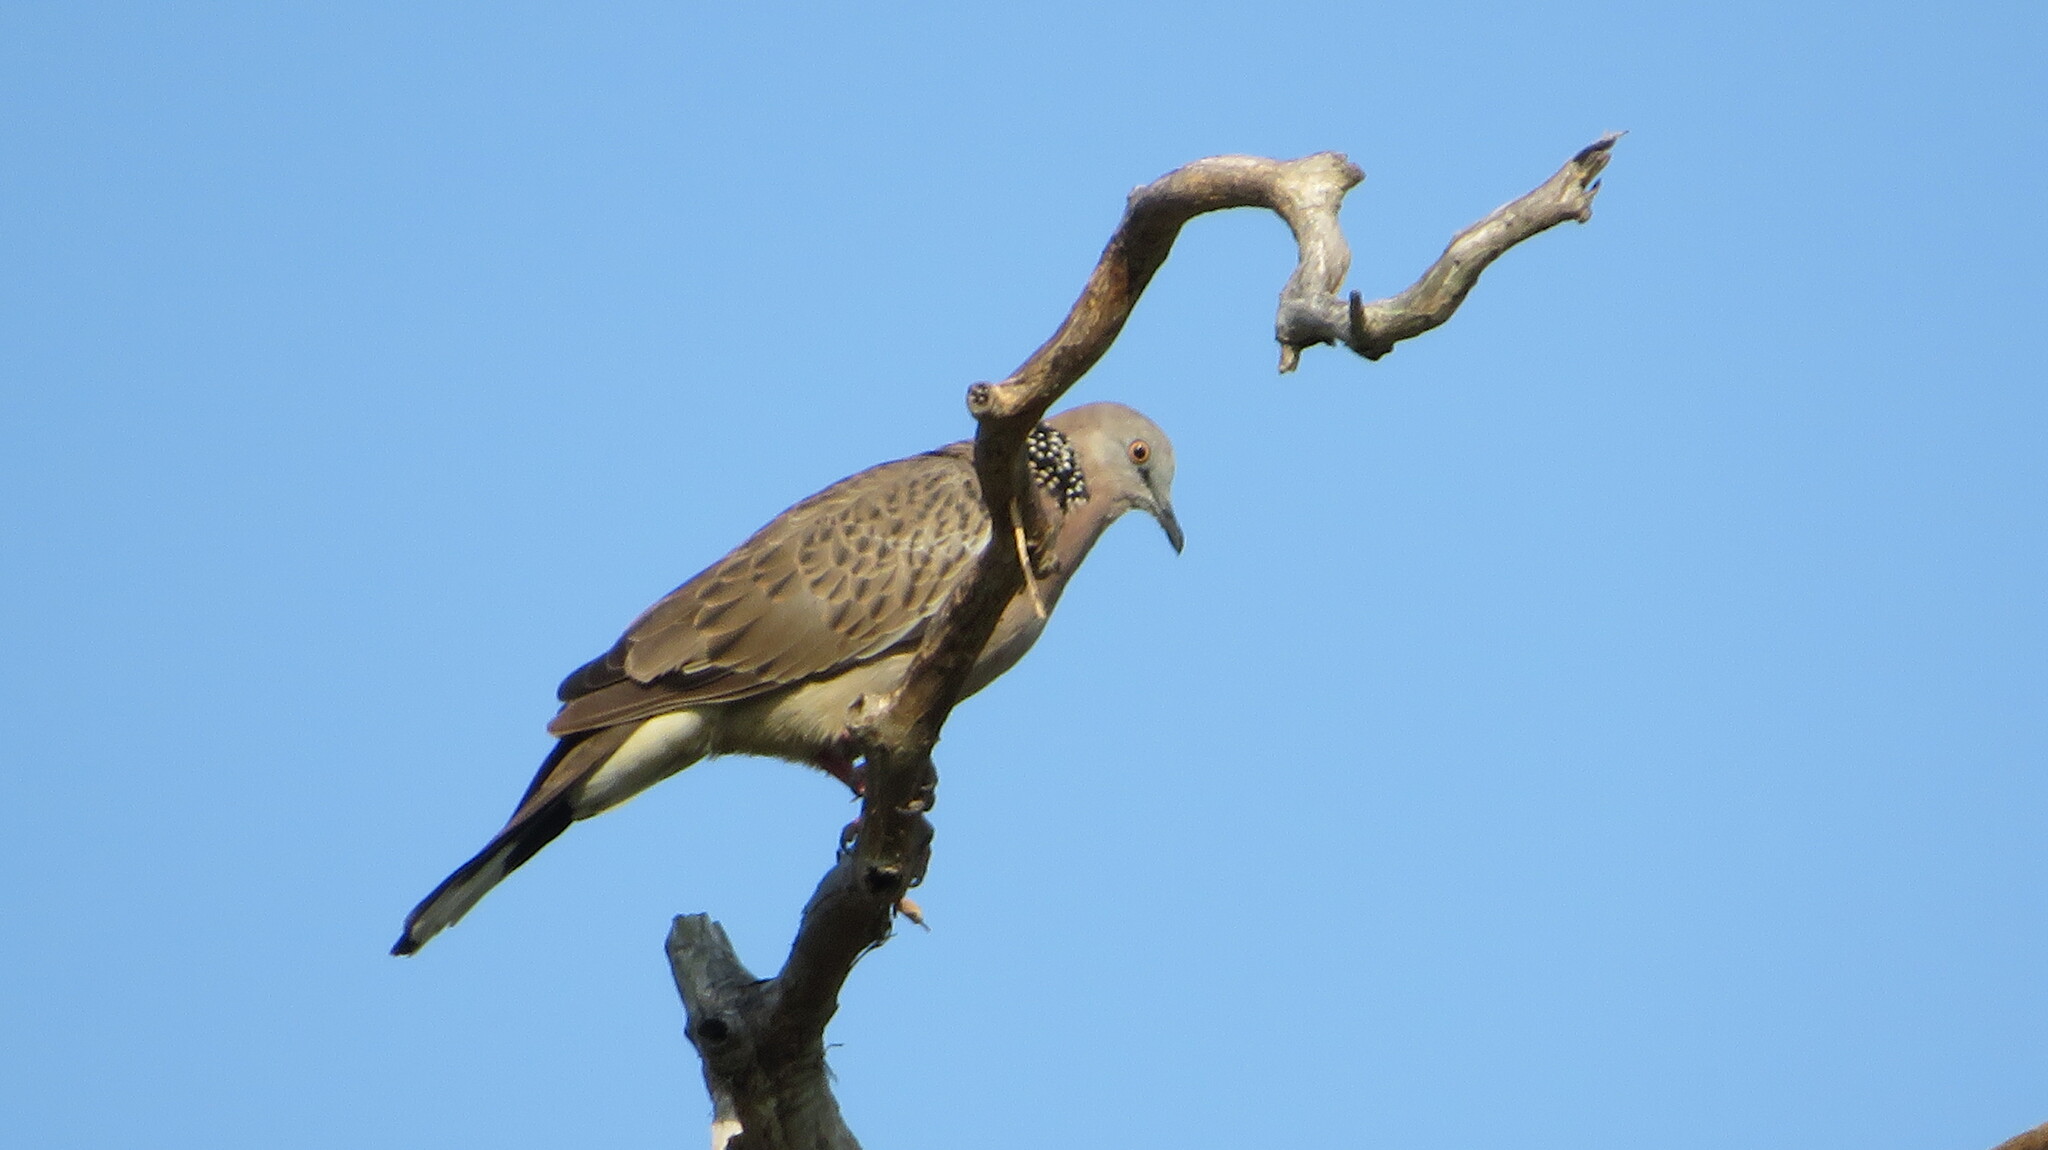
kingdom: Animalia
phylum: Chordata
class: Aves
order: Columbiformes
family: Columbidae
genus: Spilopelia
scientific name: Spilopelia chinensis
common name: Spotted dove
